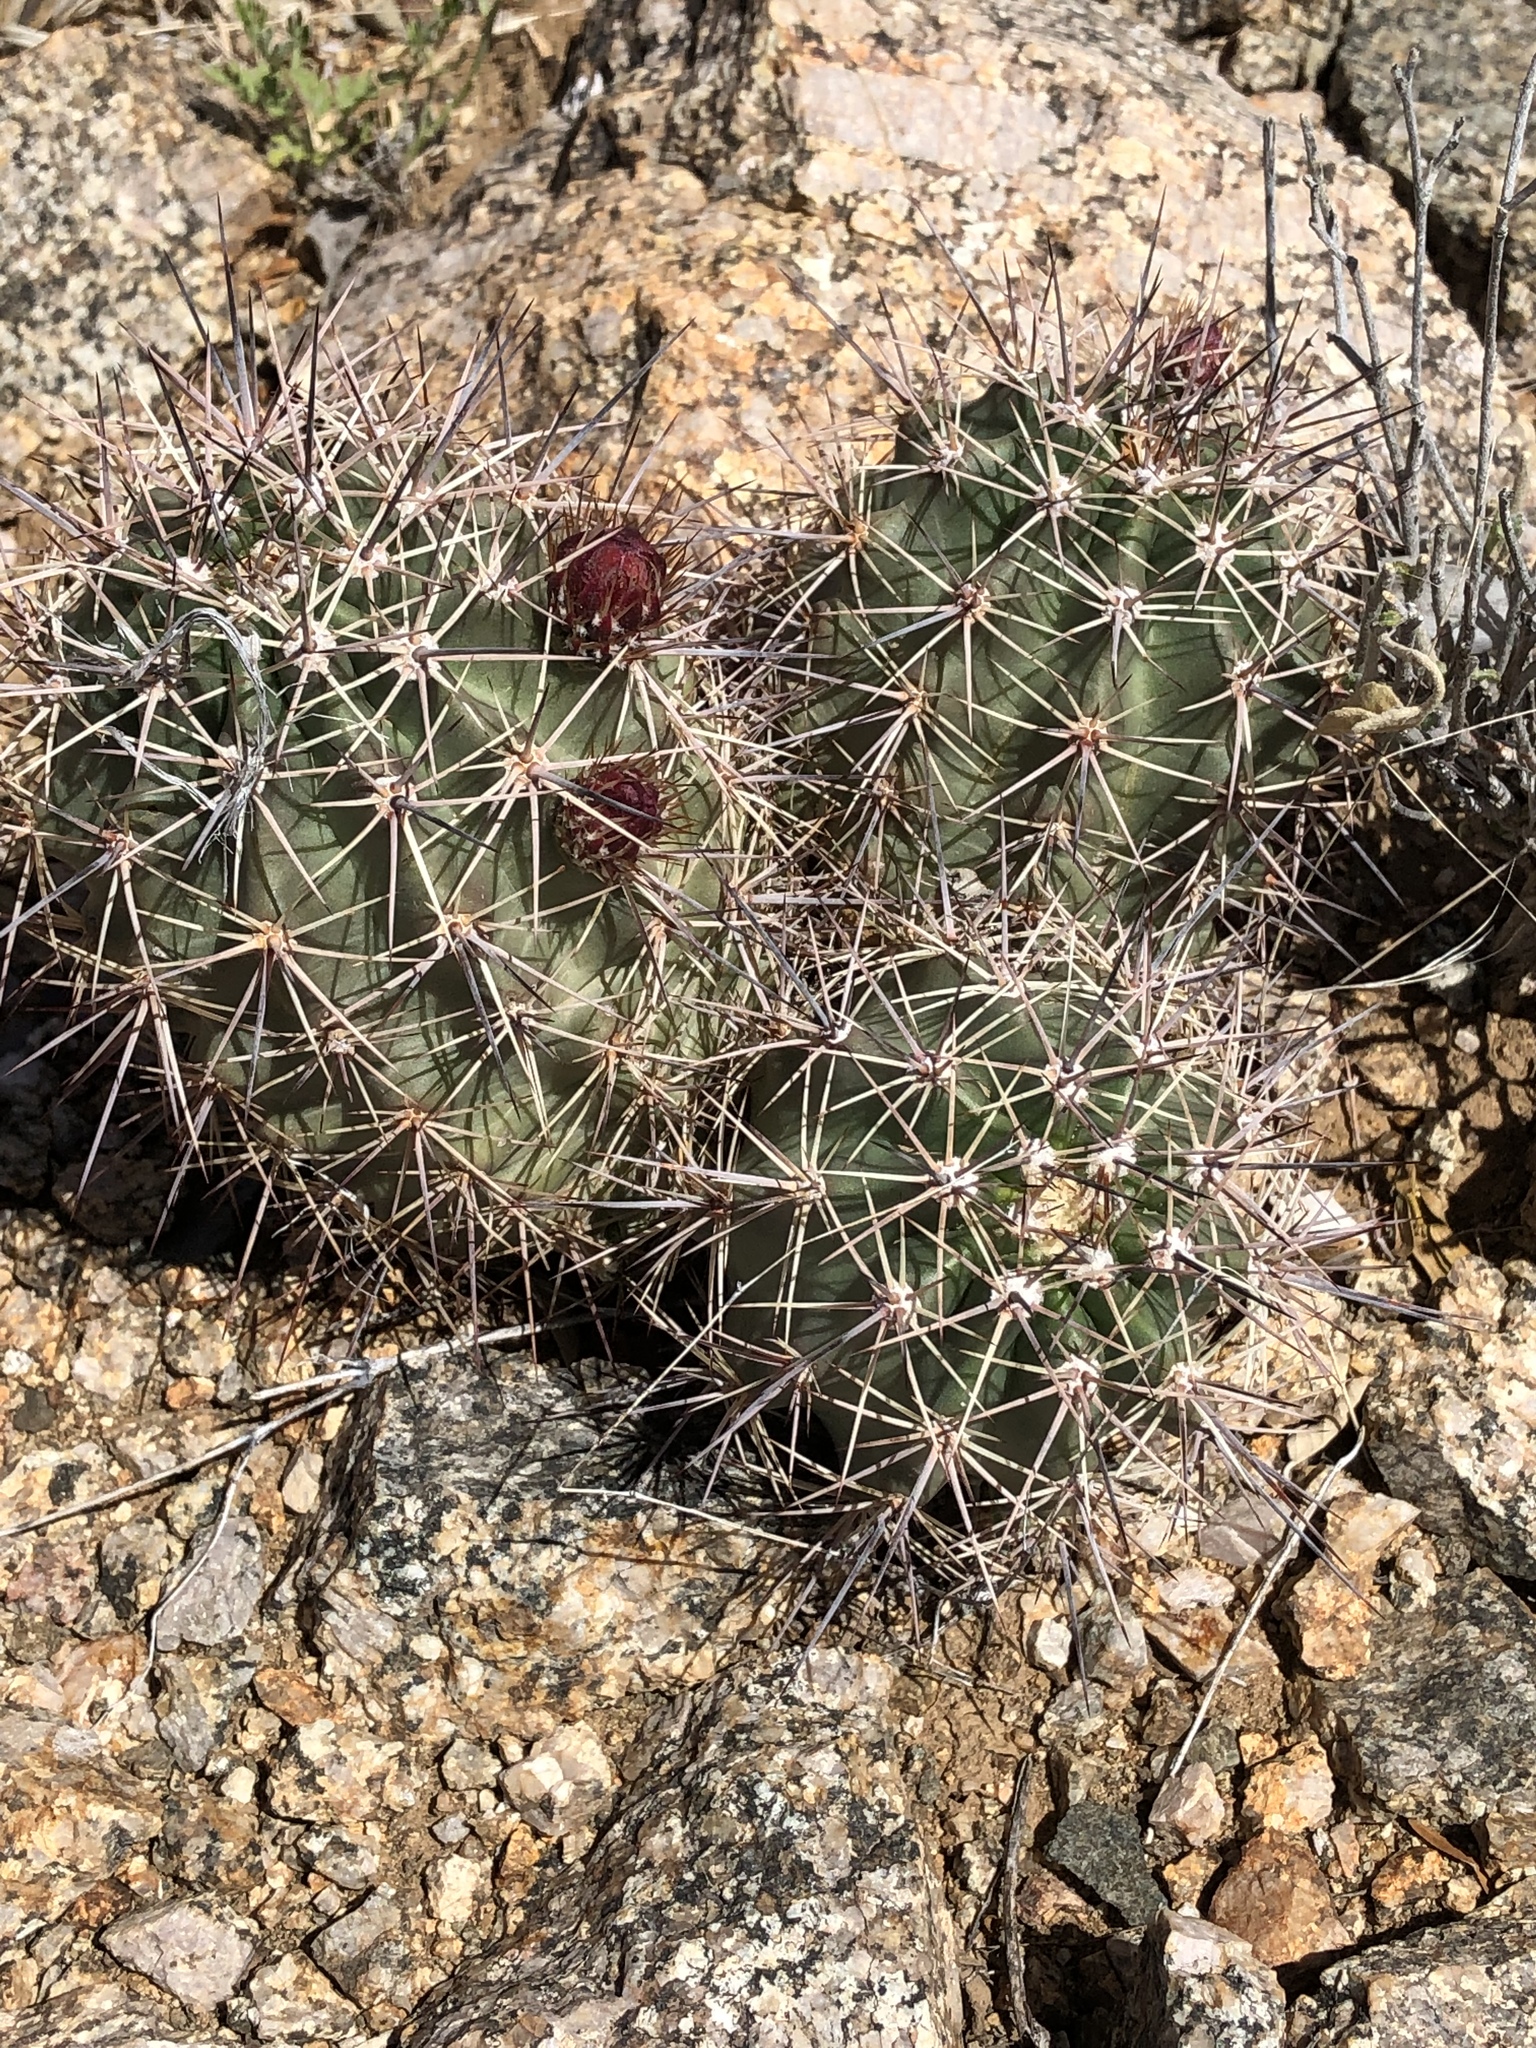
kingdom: Plantae
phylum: Tracheophyta
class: Magnoliopsida
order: Caryophyllales
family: Cactaceae
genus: Echinocereus
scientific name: Echinocereus coccineus
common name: Scarlet hedgehog cactus
